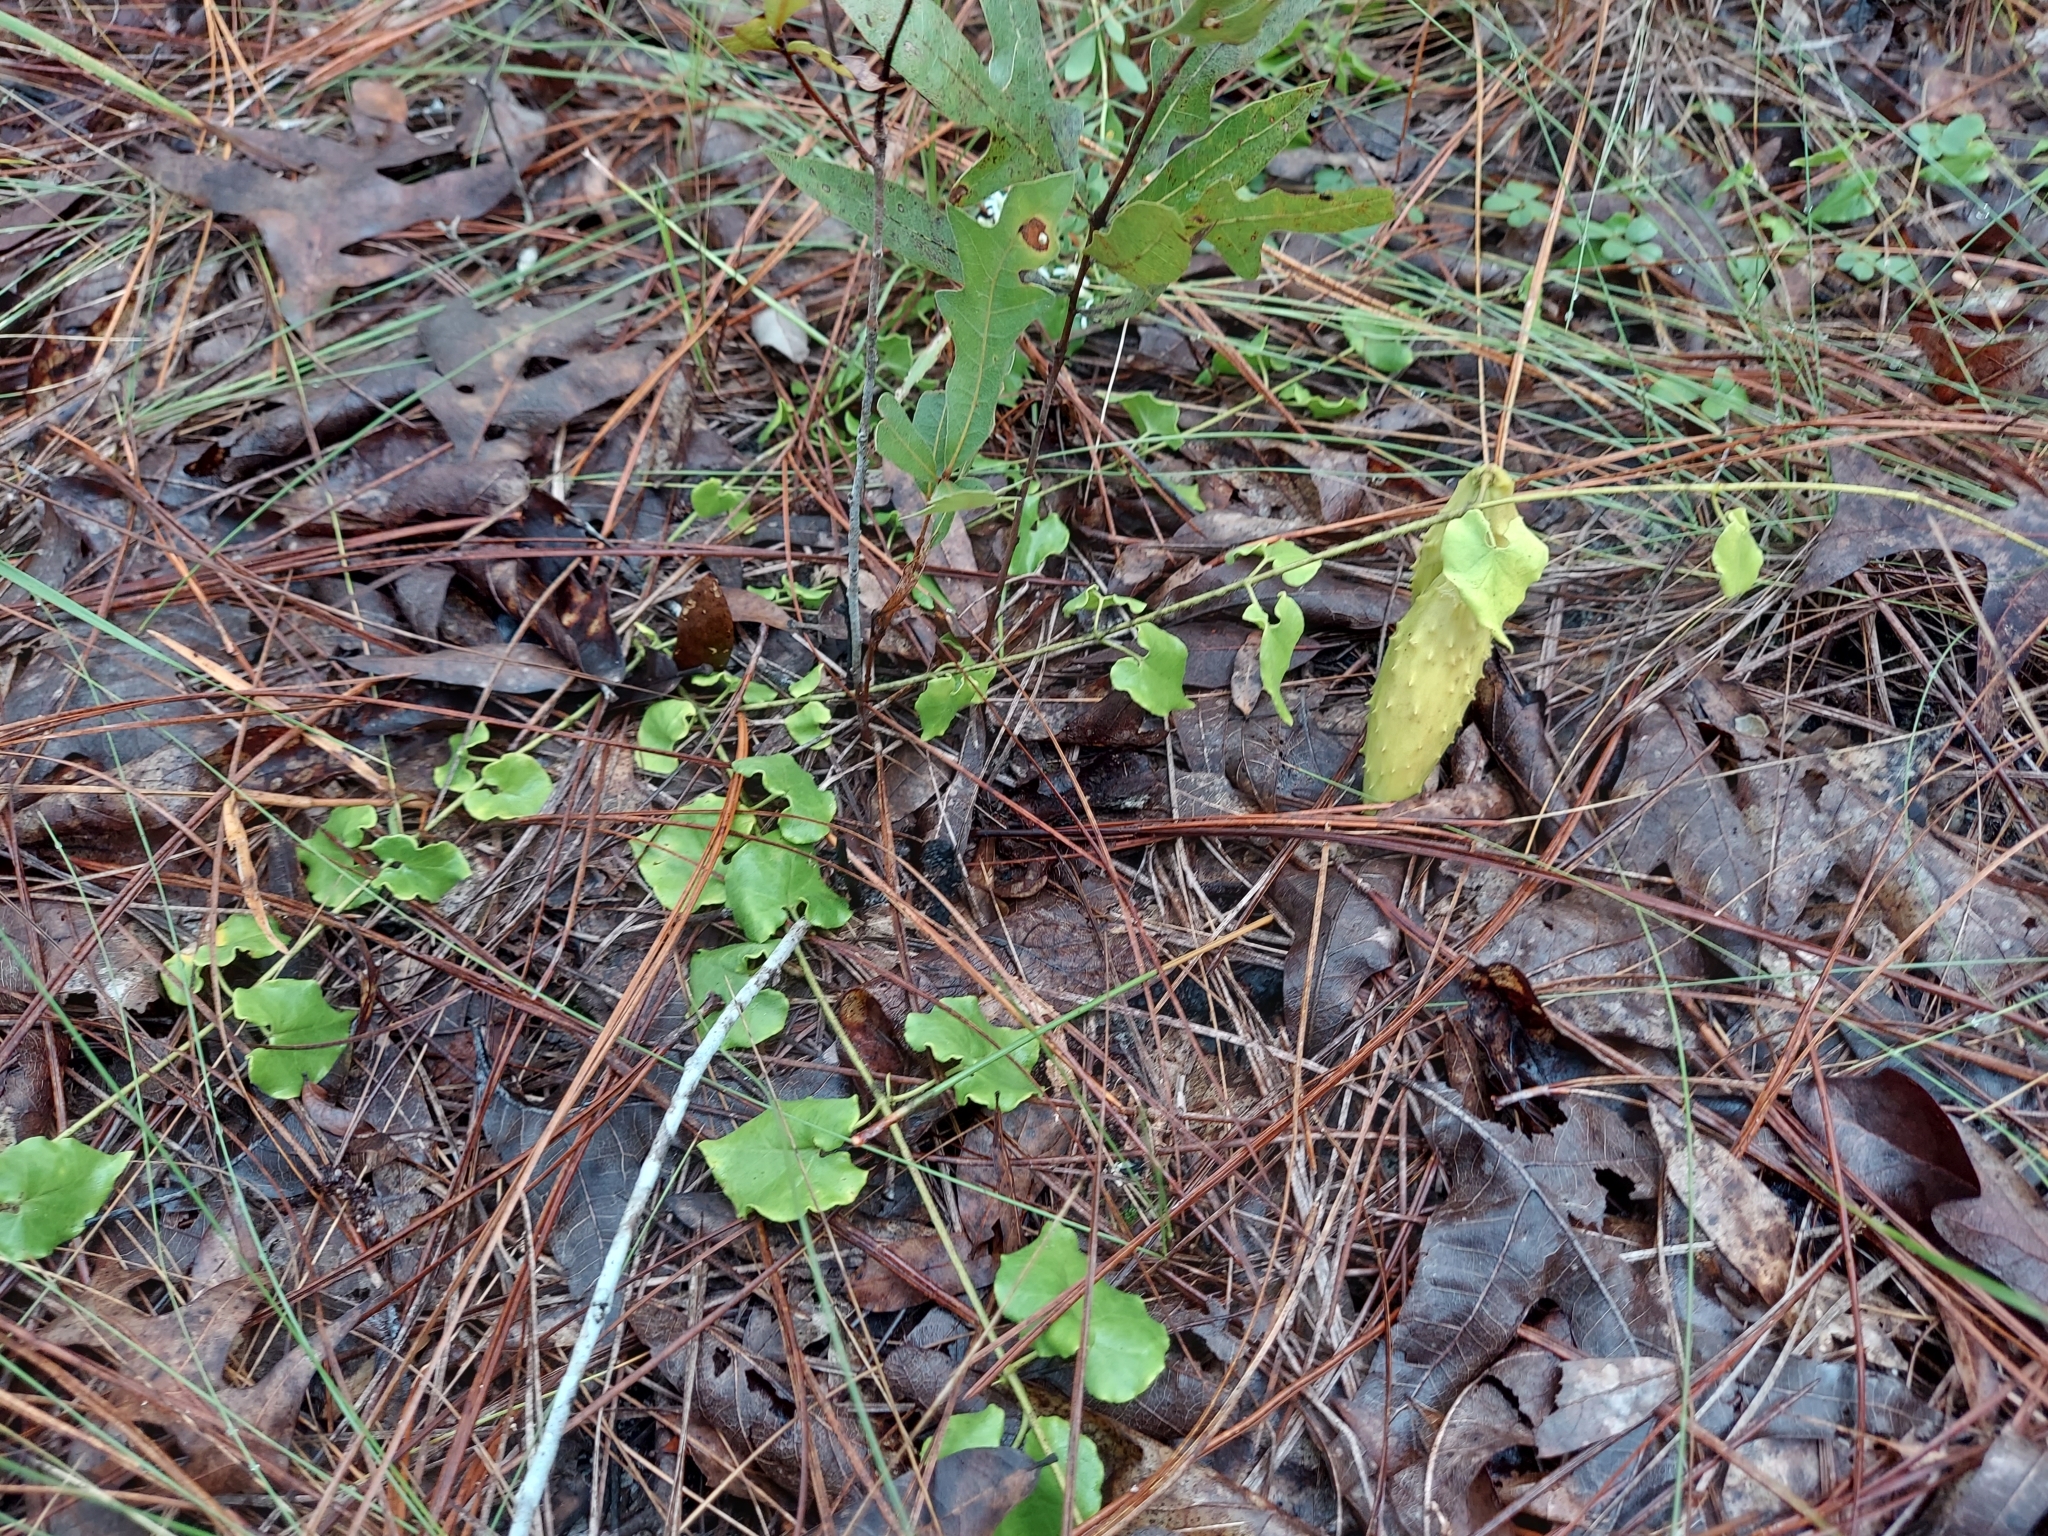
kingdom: Plantae
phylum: Tracheophyta
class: Magnoliopsida
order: Gentianales
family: Apocynaceae
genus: Chthamalia
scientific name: Chthamalia pubiflora
